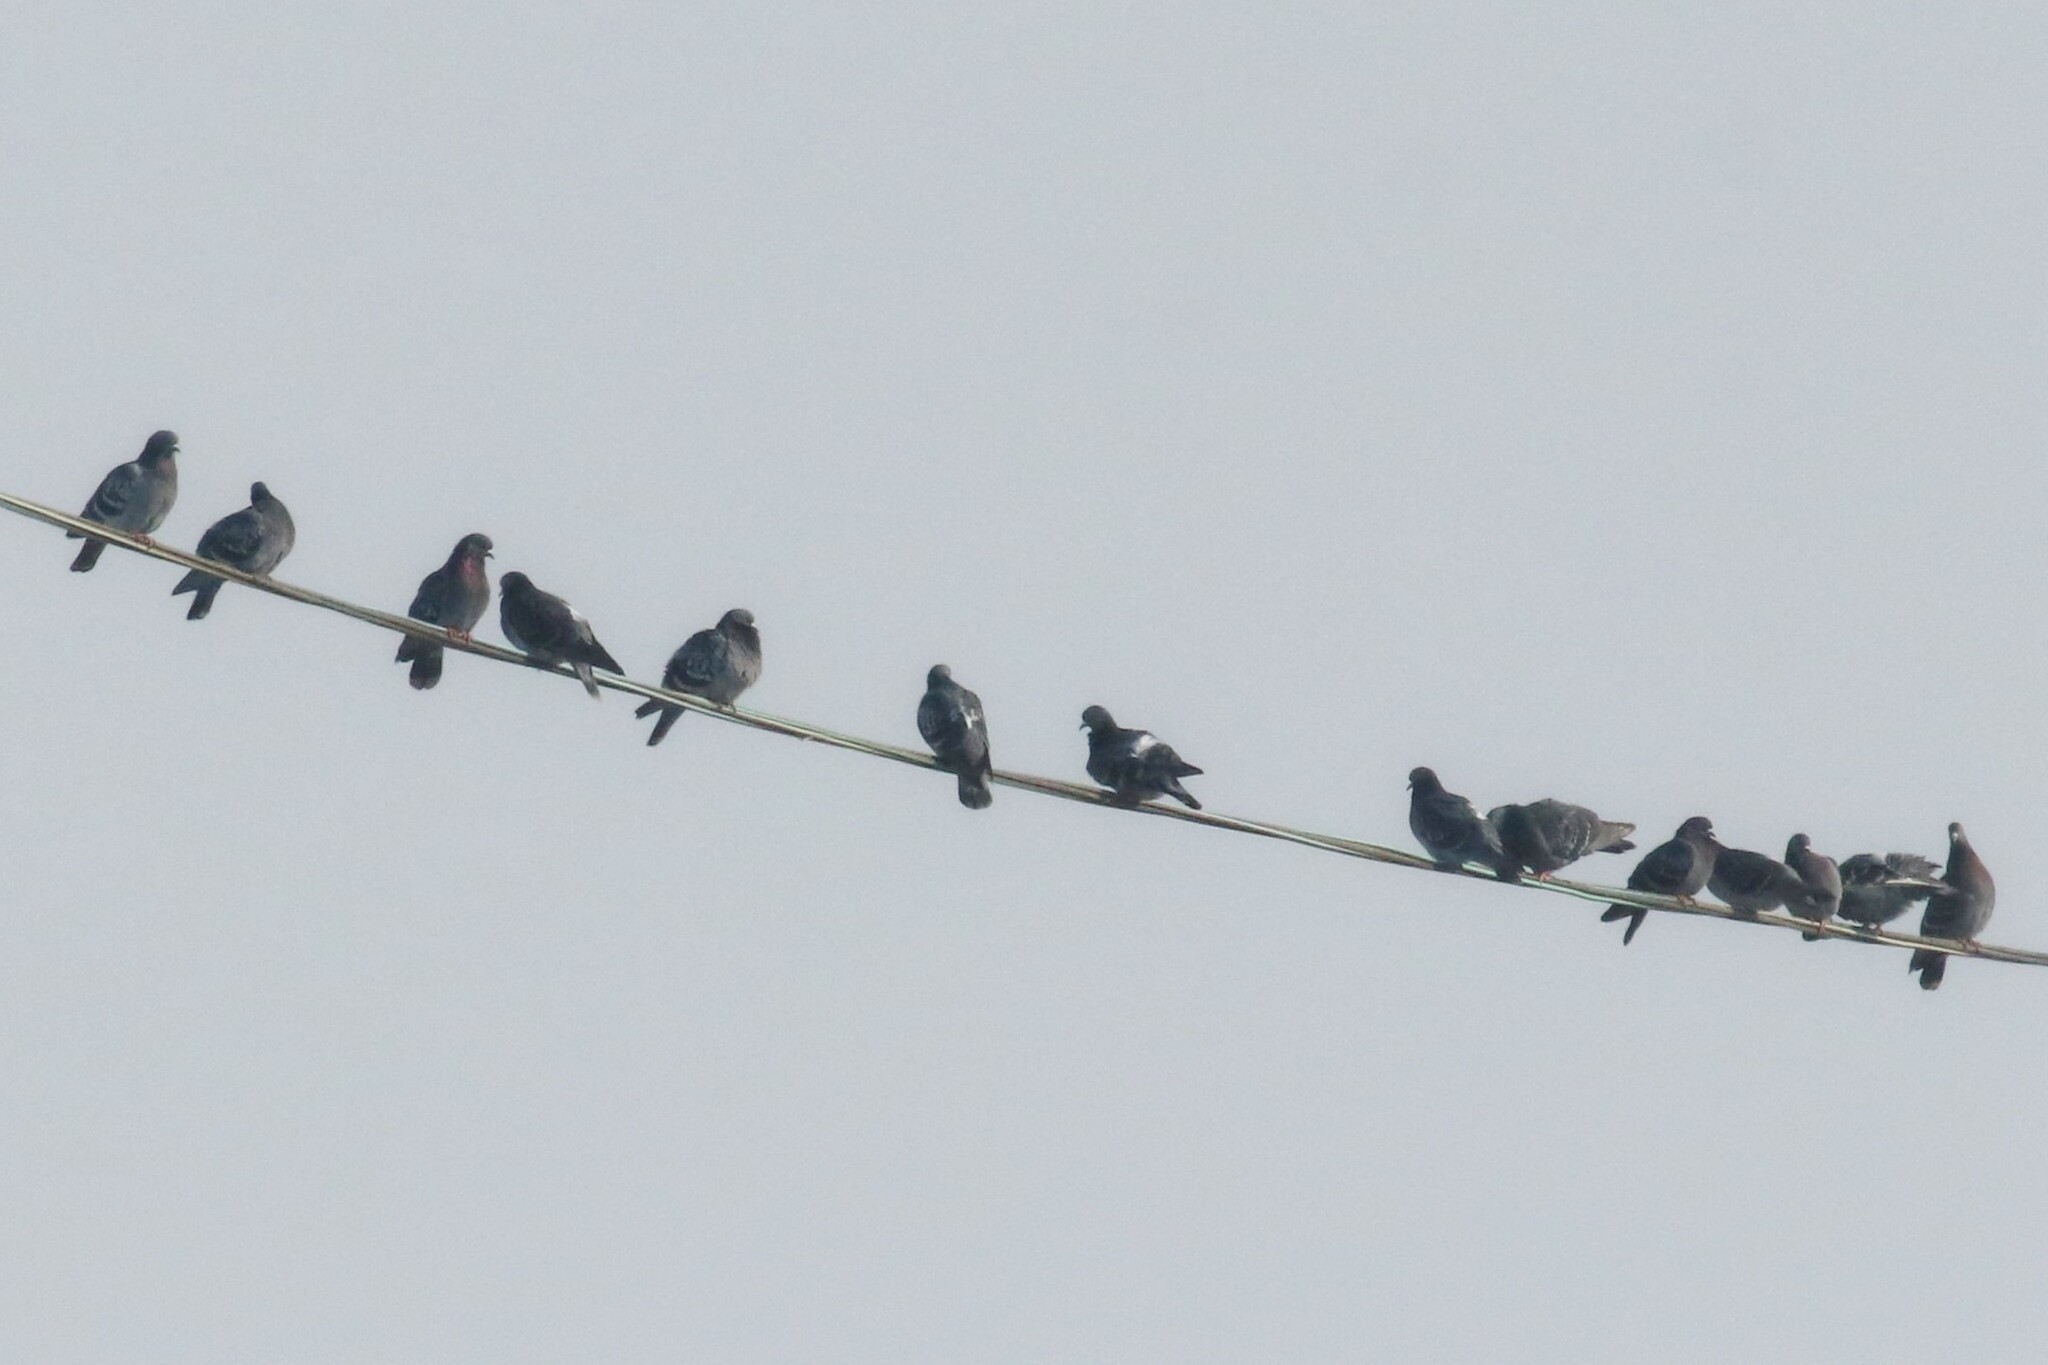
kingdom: Animalia
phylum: Chordata
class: Aves
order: Columbiformes
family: Columbidae
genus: Columba
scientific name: Columba livia
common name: Rock pigeon
